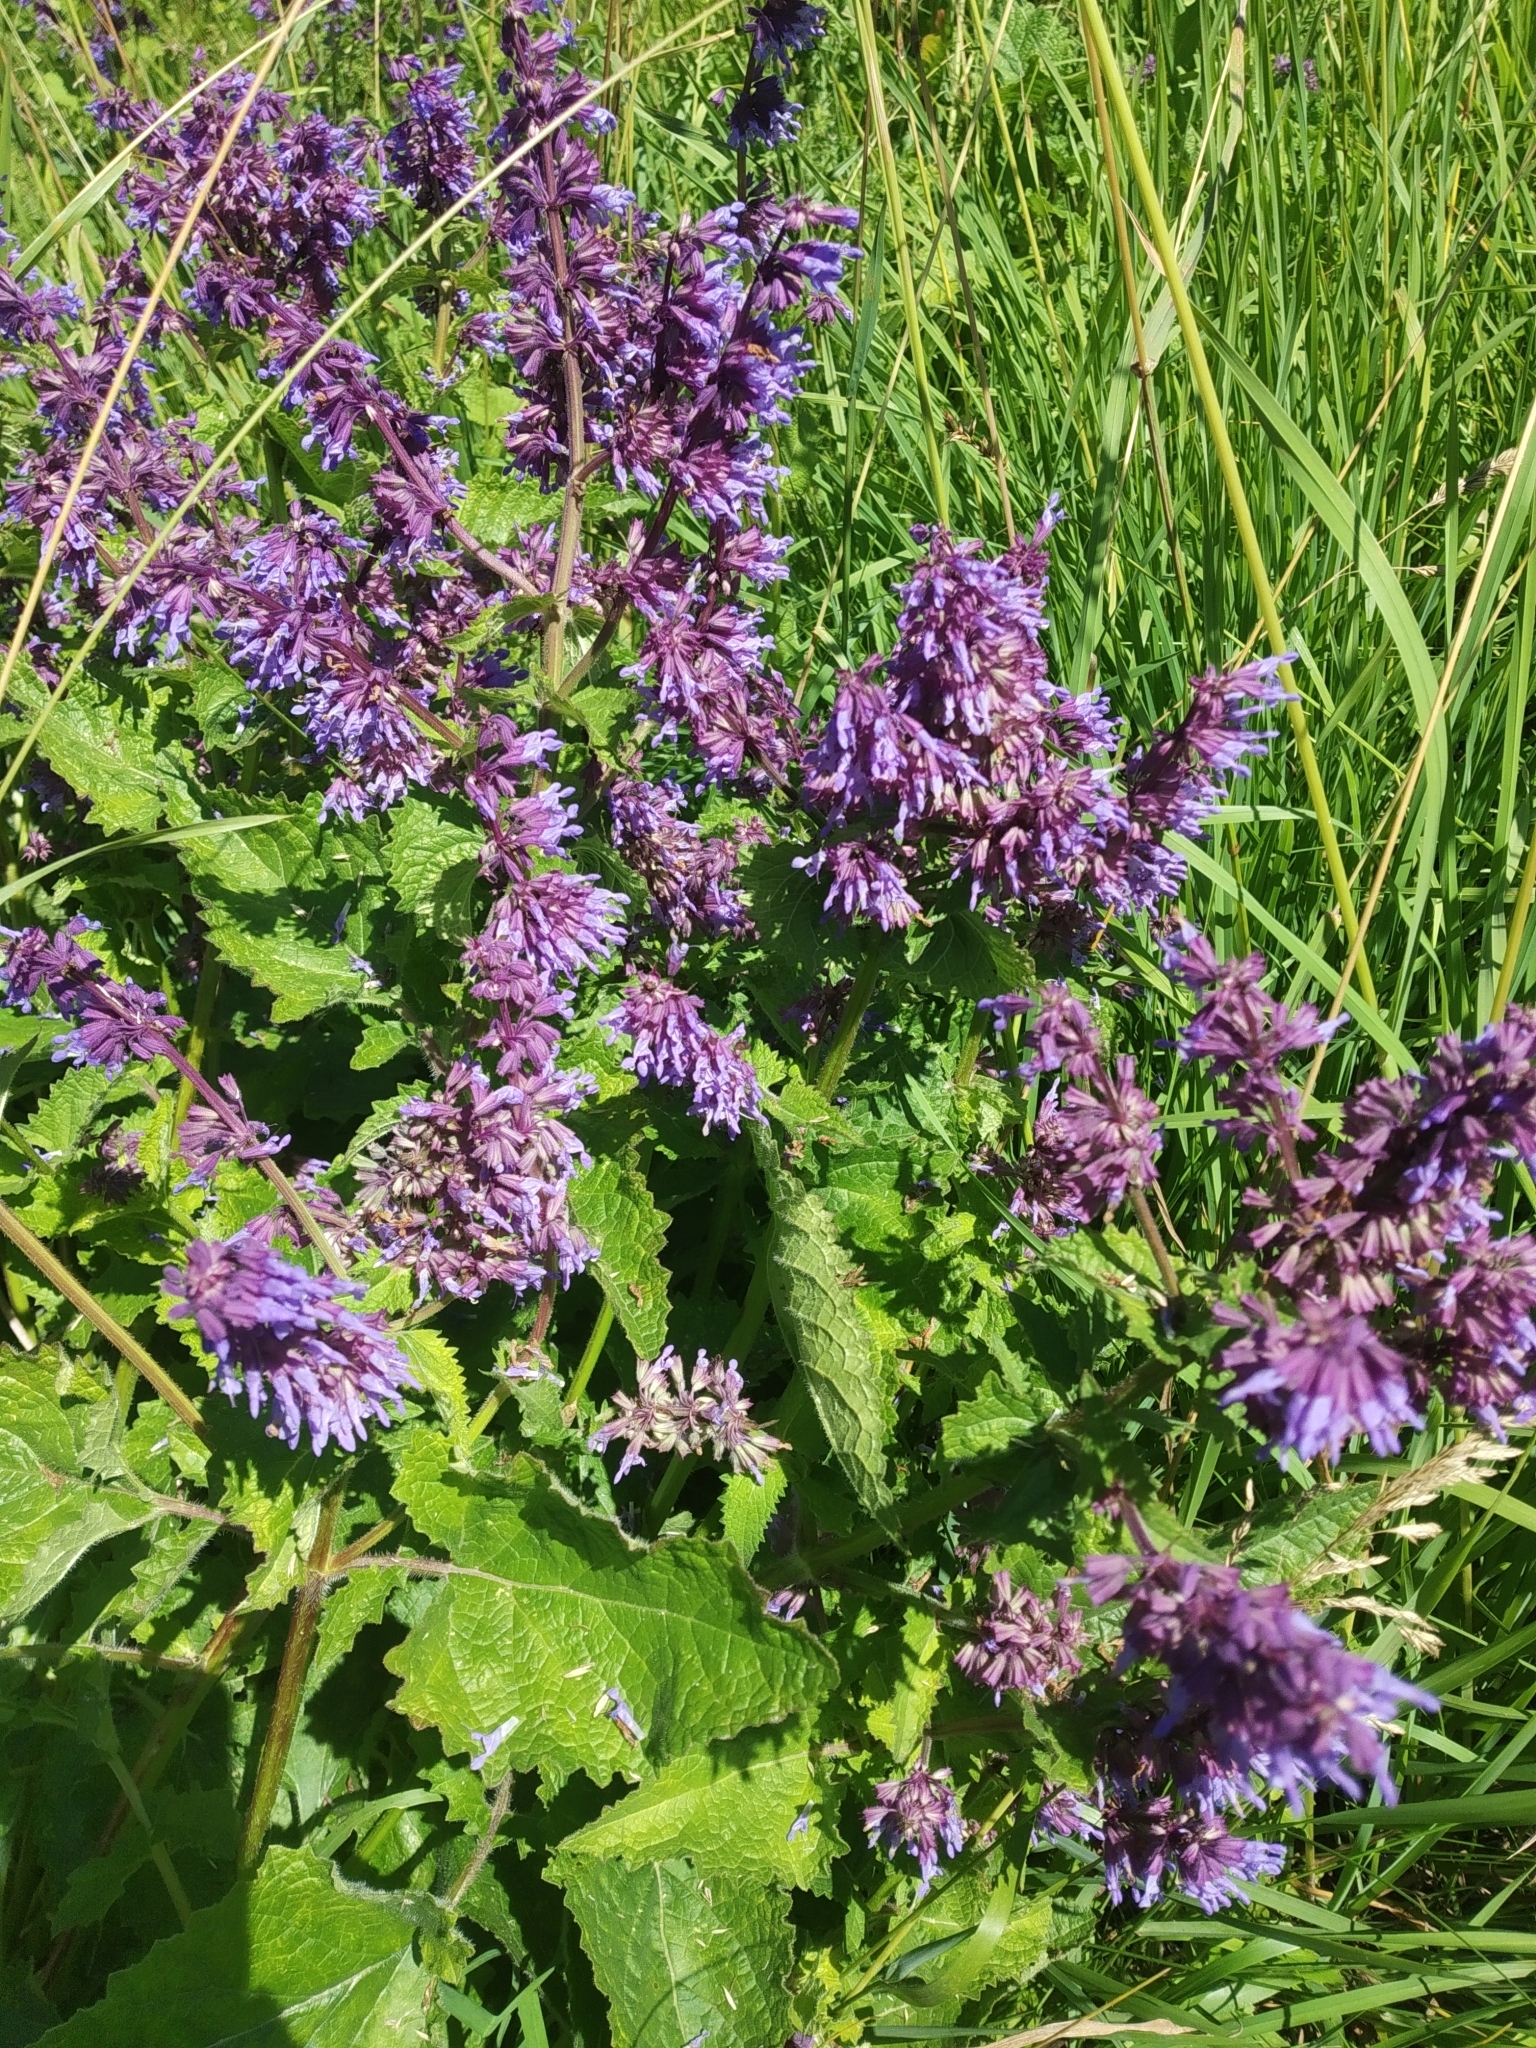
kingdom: Plantae
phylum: Tracheophyta
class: Magnoliopsida
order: Lamiales
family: Lamiaceae
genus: Salvia
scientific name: Salvia verticillata
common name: Whorled clary
